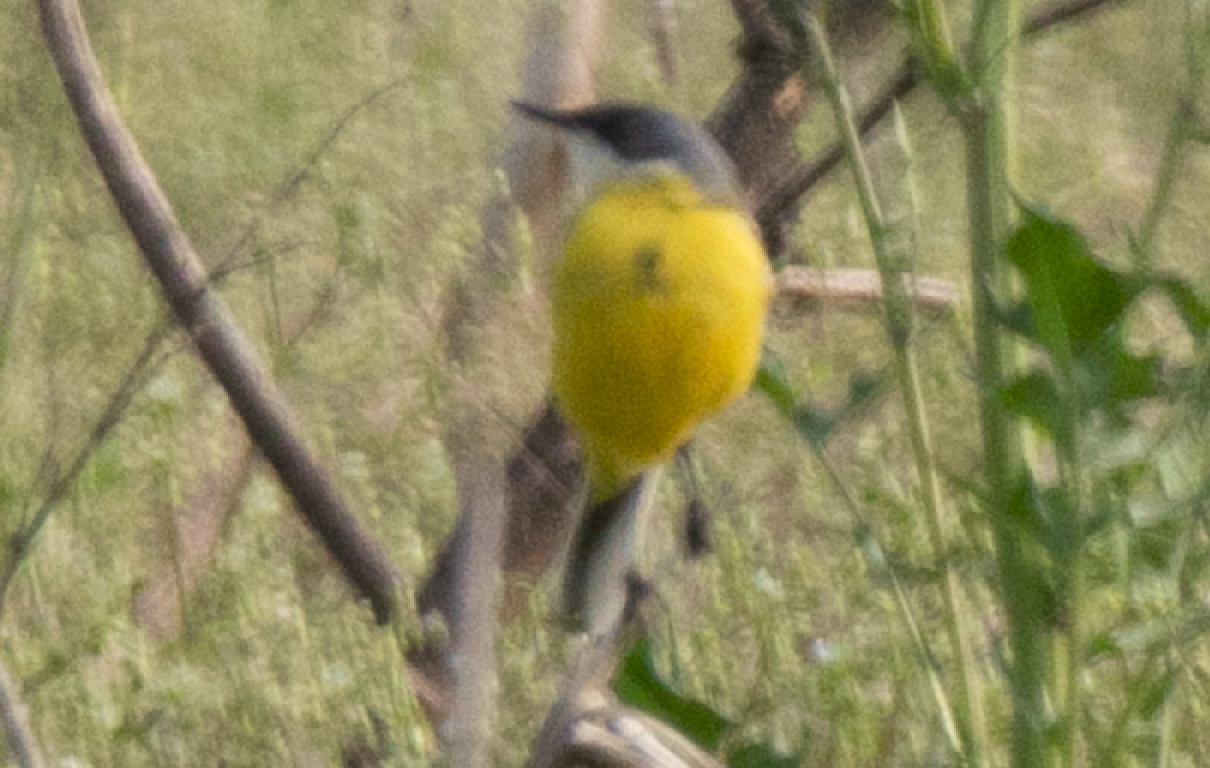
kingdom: Animalia
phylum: Chordata
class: Aves
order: Passeriformes
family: Motacillidae
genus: Motacilla
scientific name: Motacilla flava
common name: Western yellow wagtail
